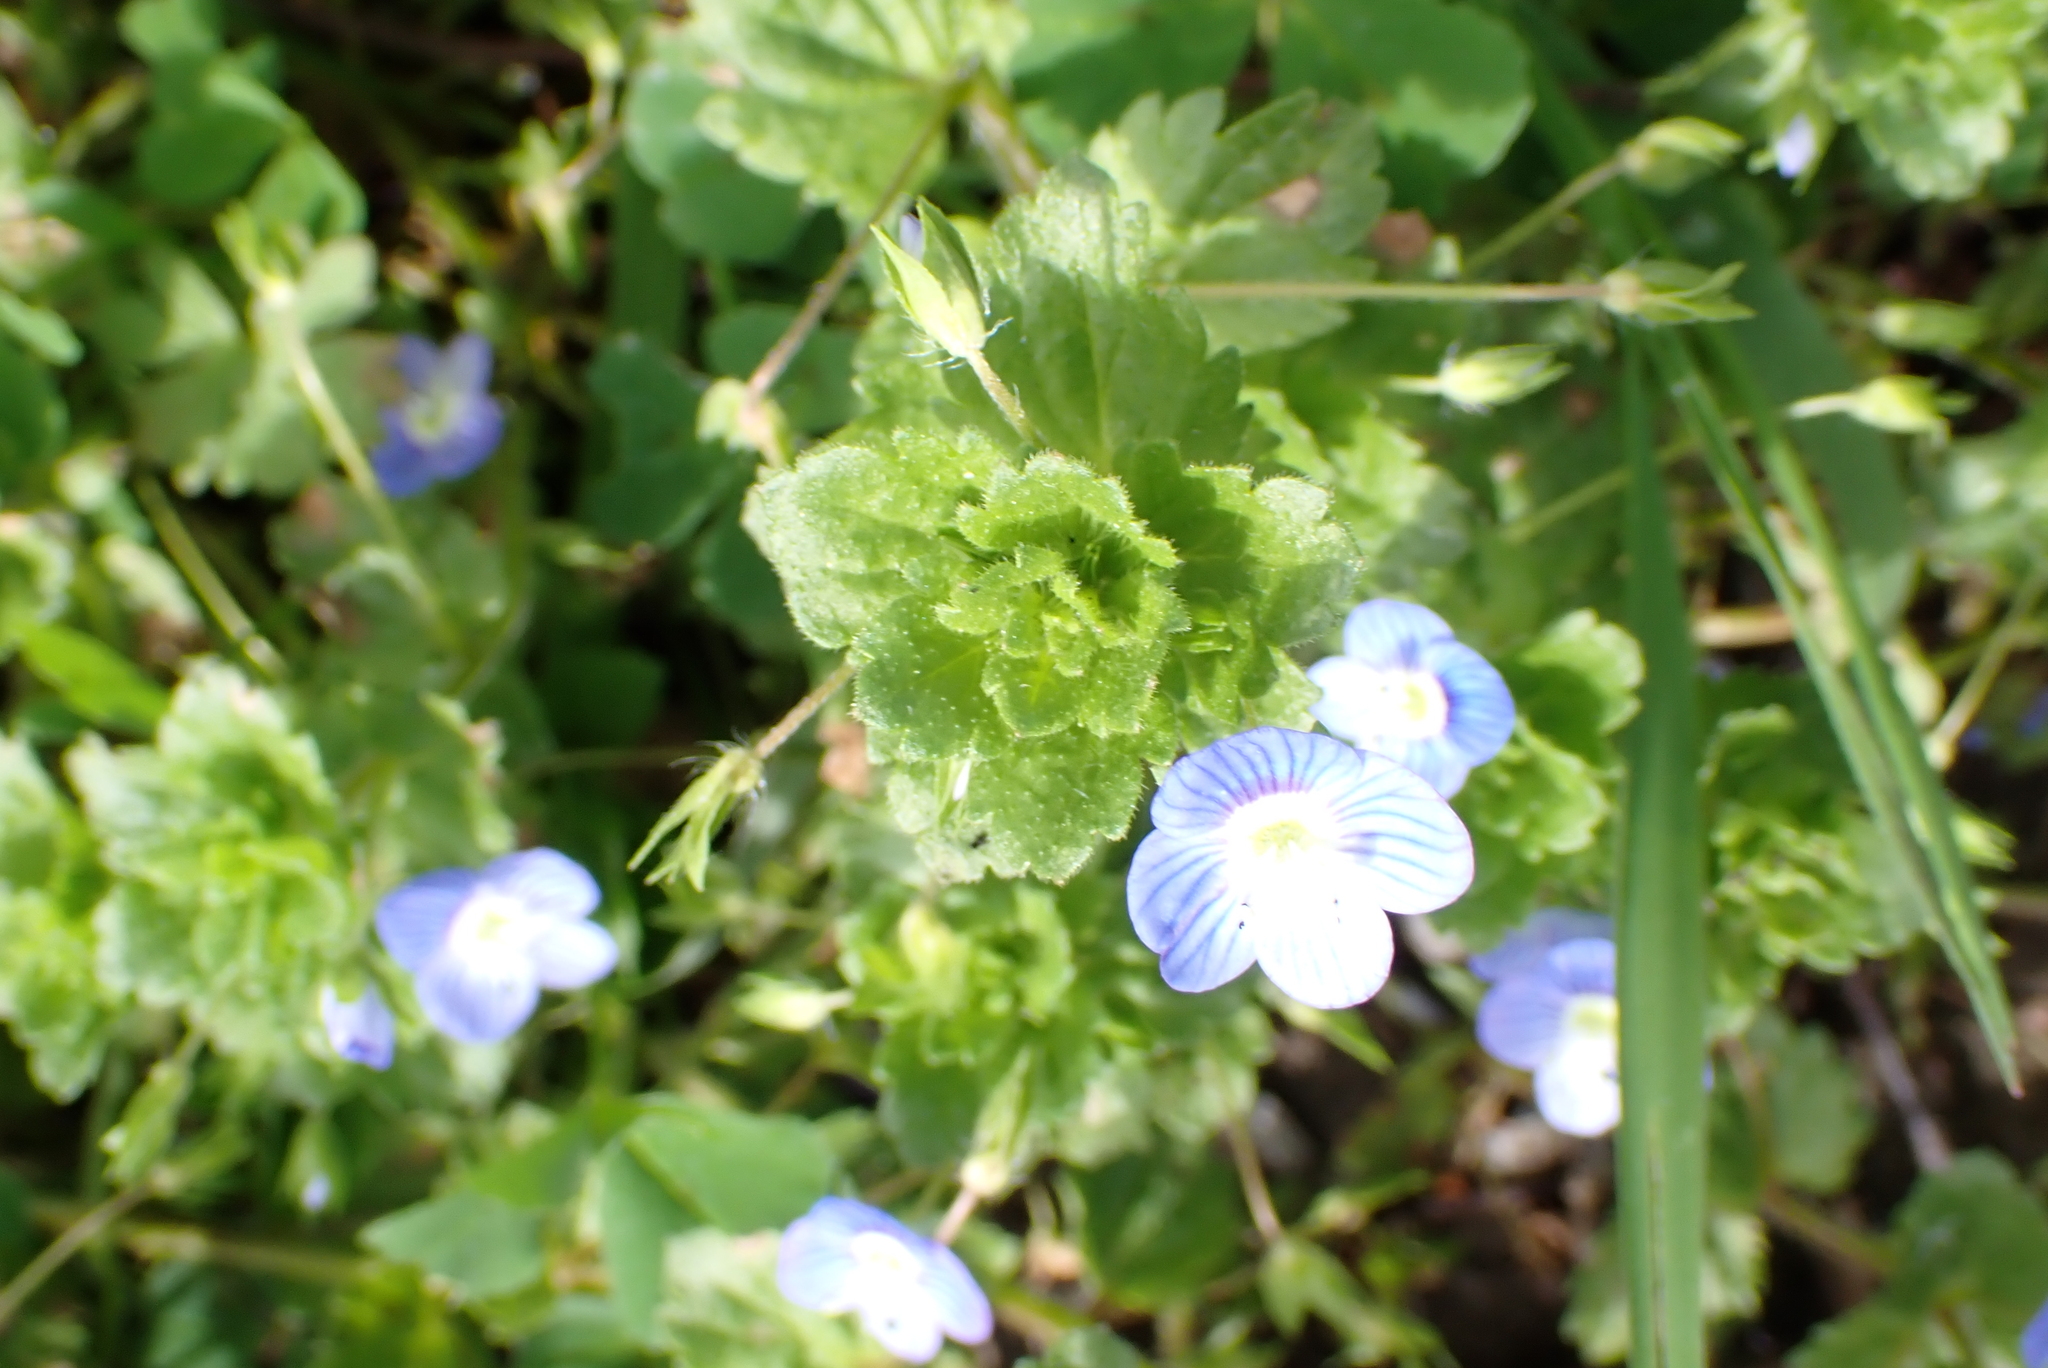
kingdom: Plantae
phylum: Tracheophyta
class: Magnoliopsida
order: Lamiales
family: Plantaginaceae
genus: Veronica
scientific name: Veronica persica
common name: Common field-speedwell
